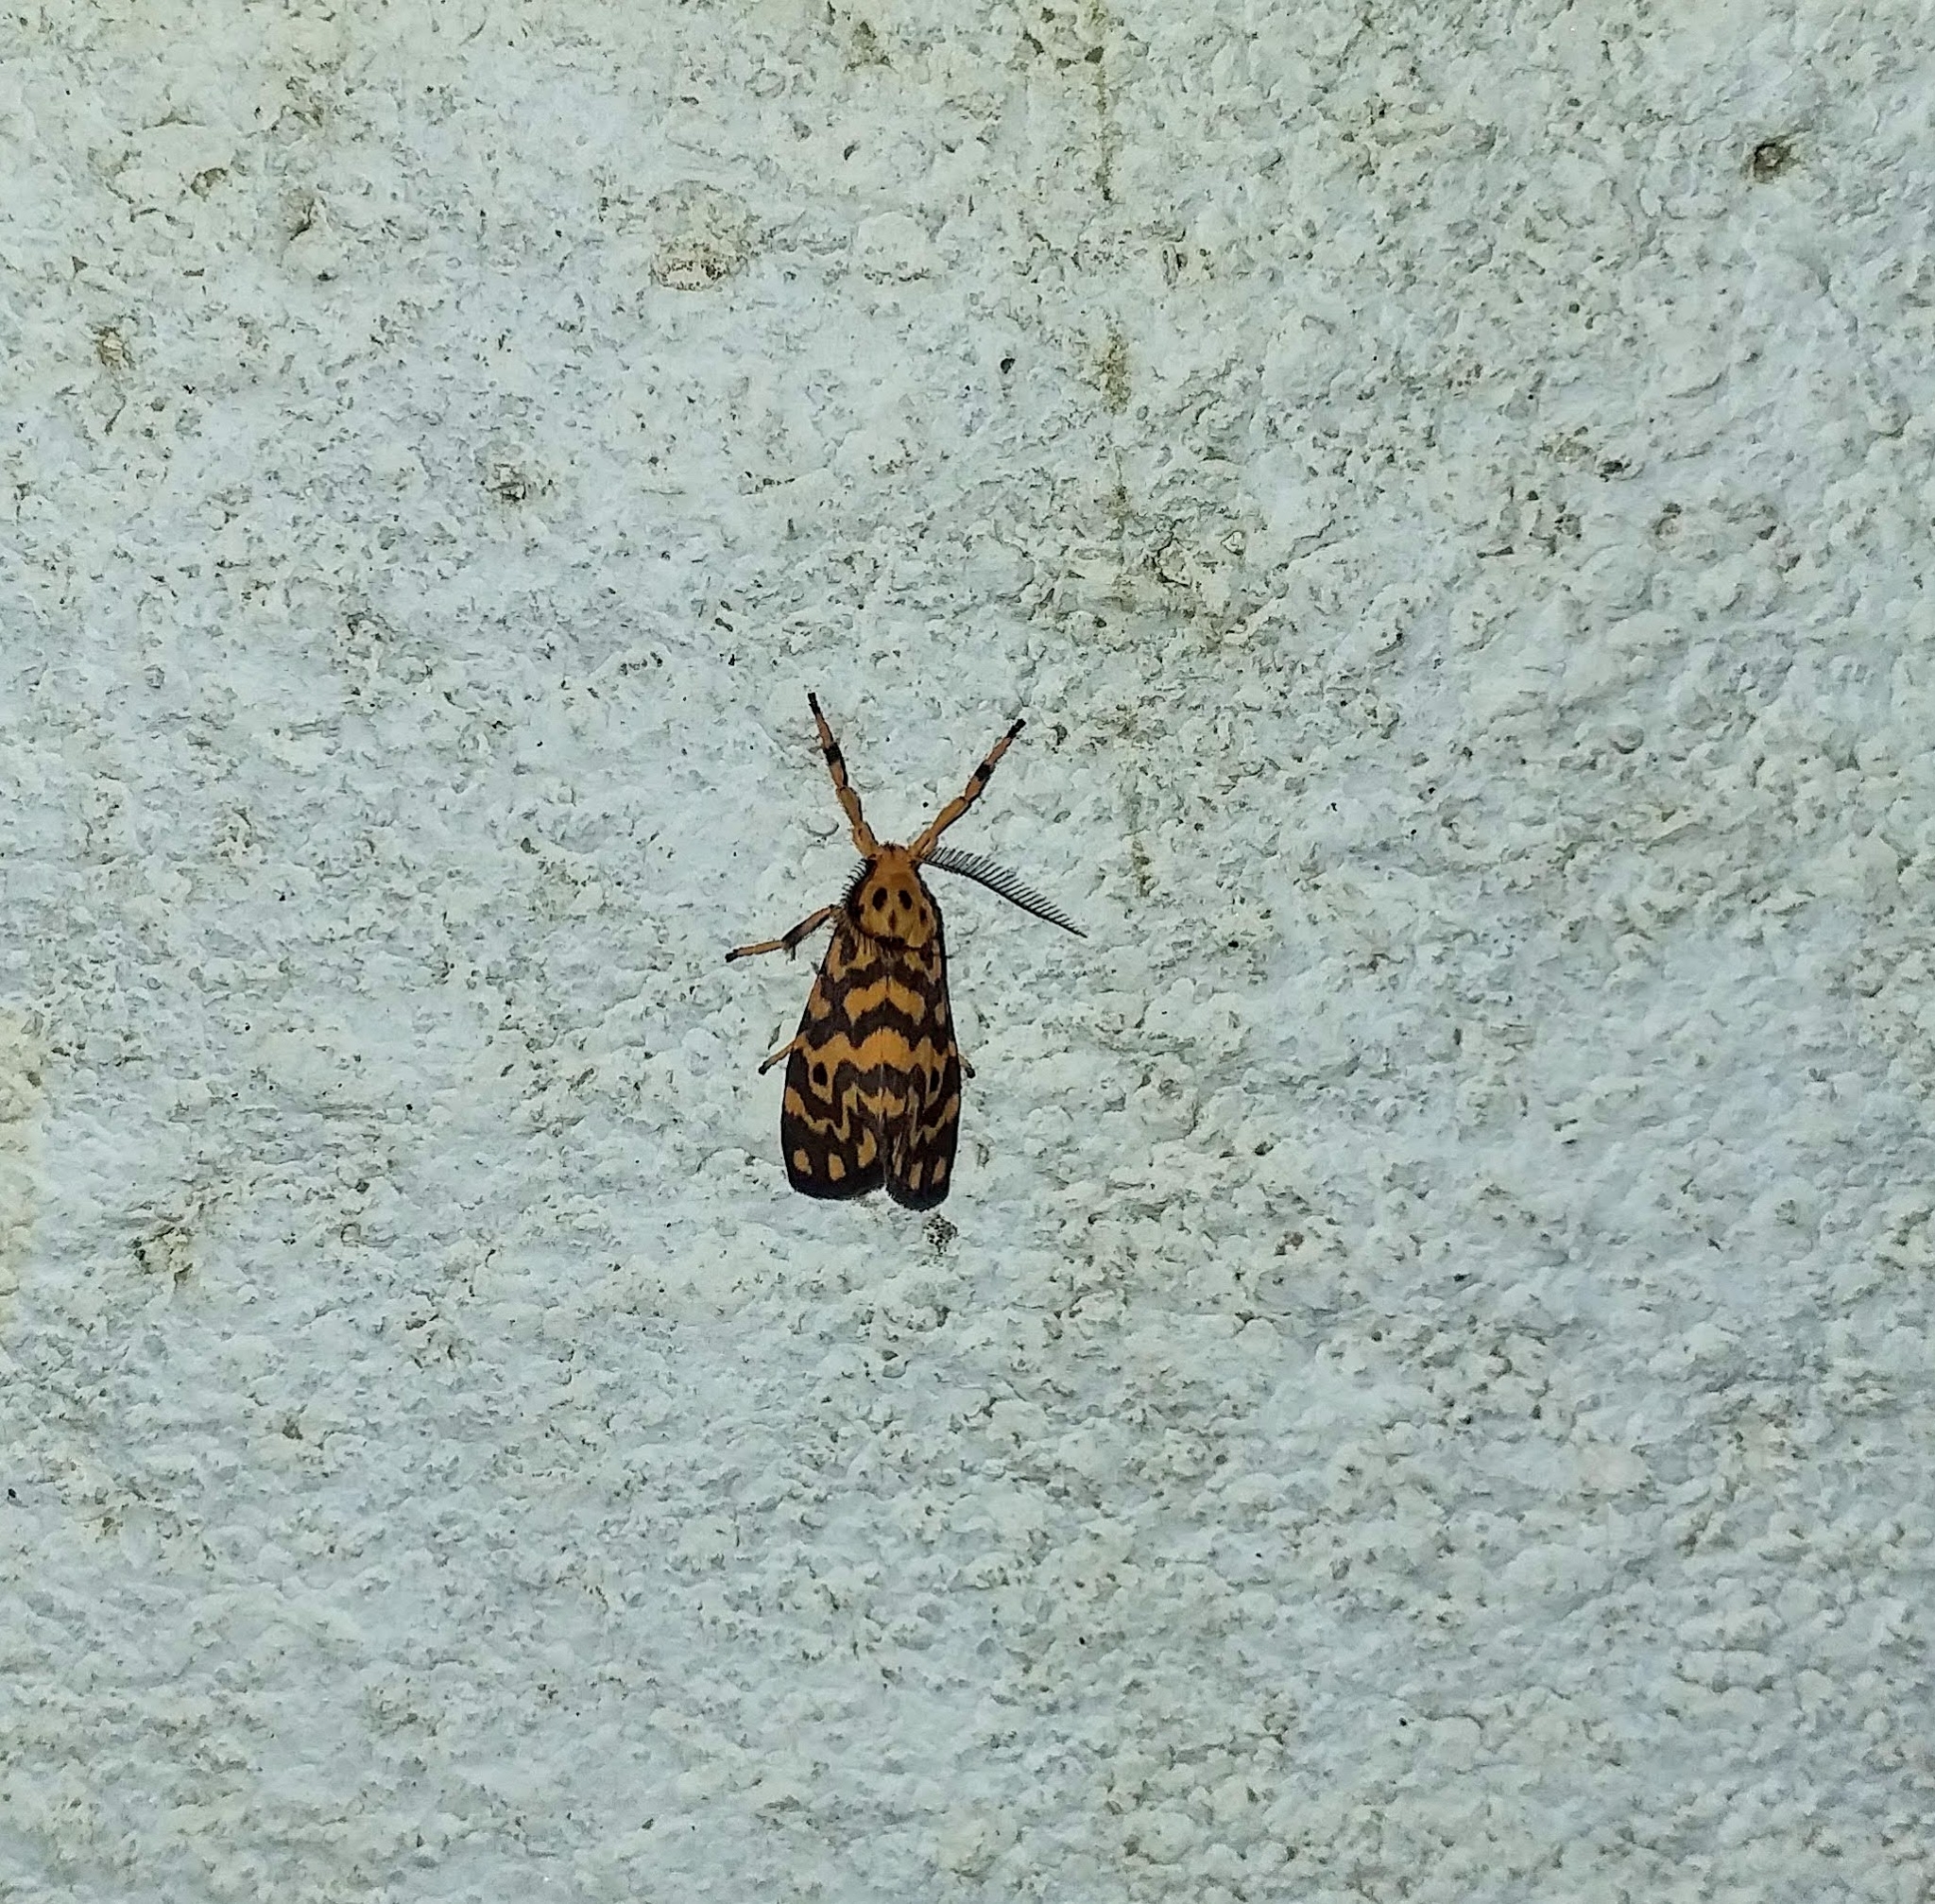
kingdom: Animalia
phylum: Arthropoda
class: Insecta
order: Lepidoptera
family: Erebidae
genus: Nepita
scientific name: Nepita conferta
